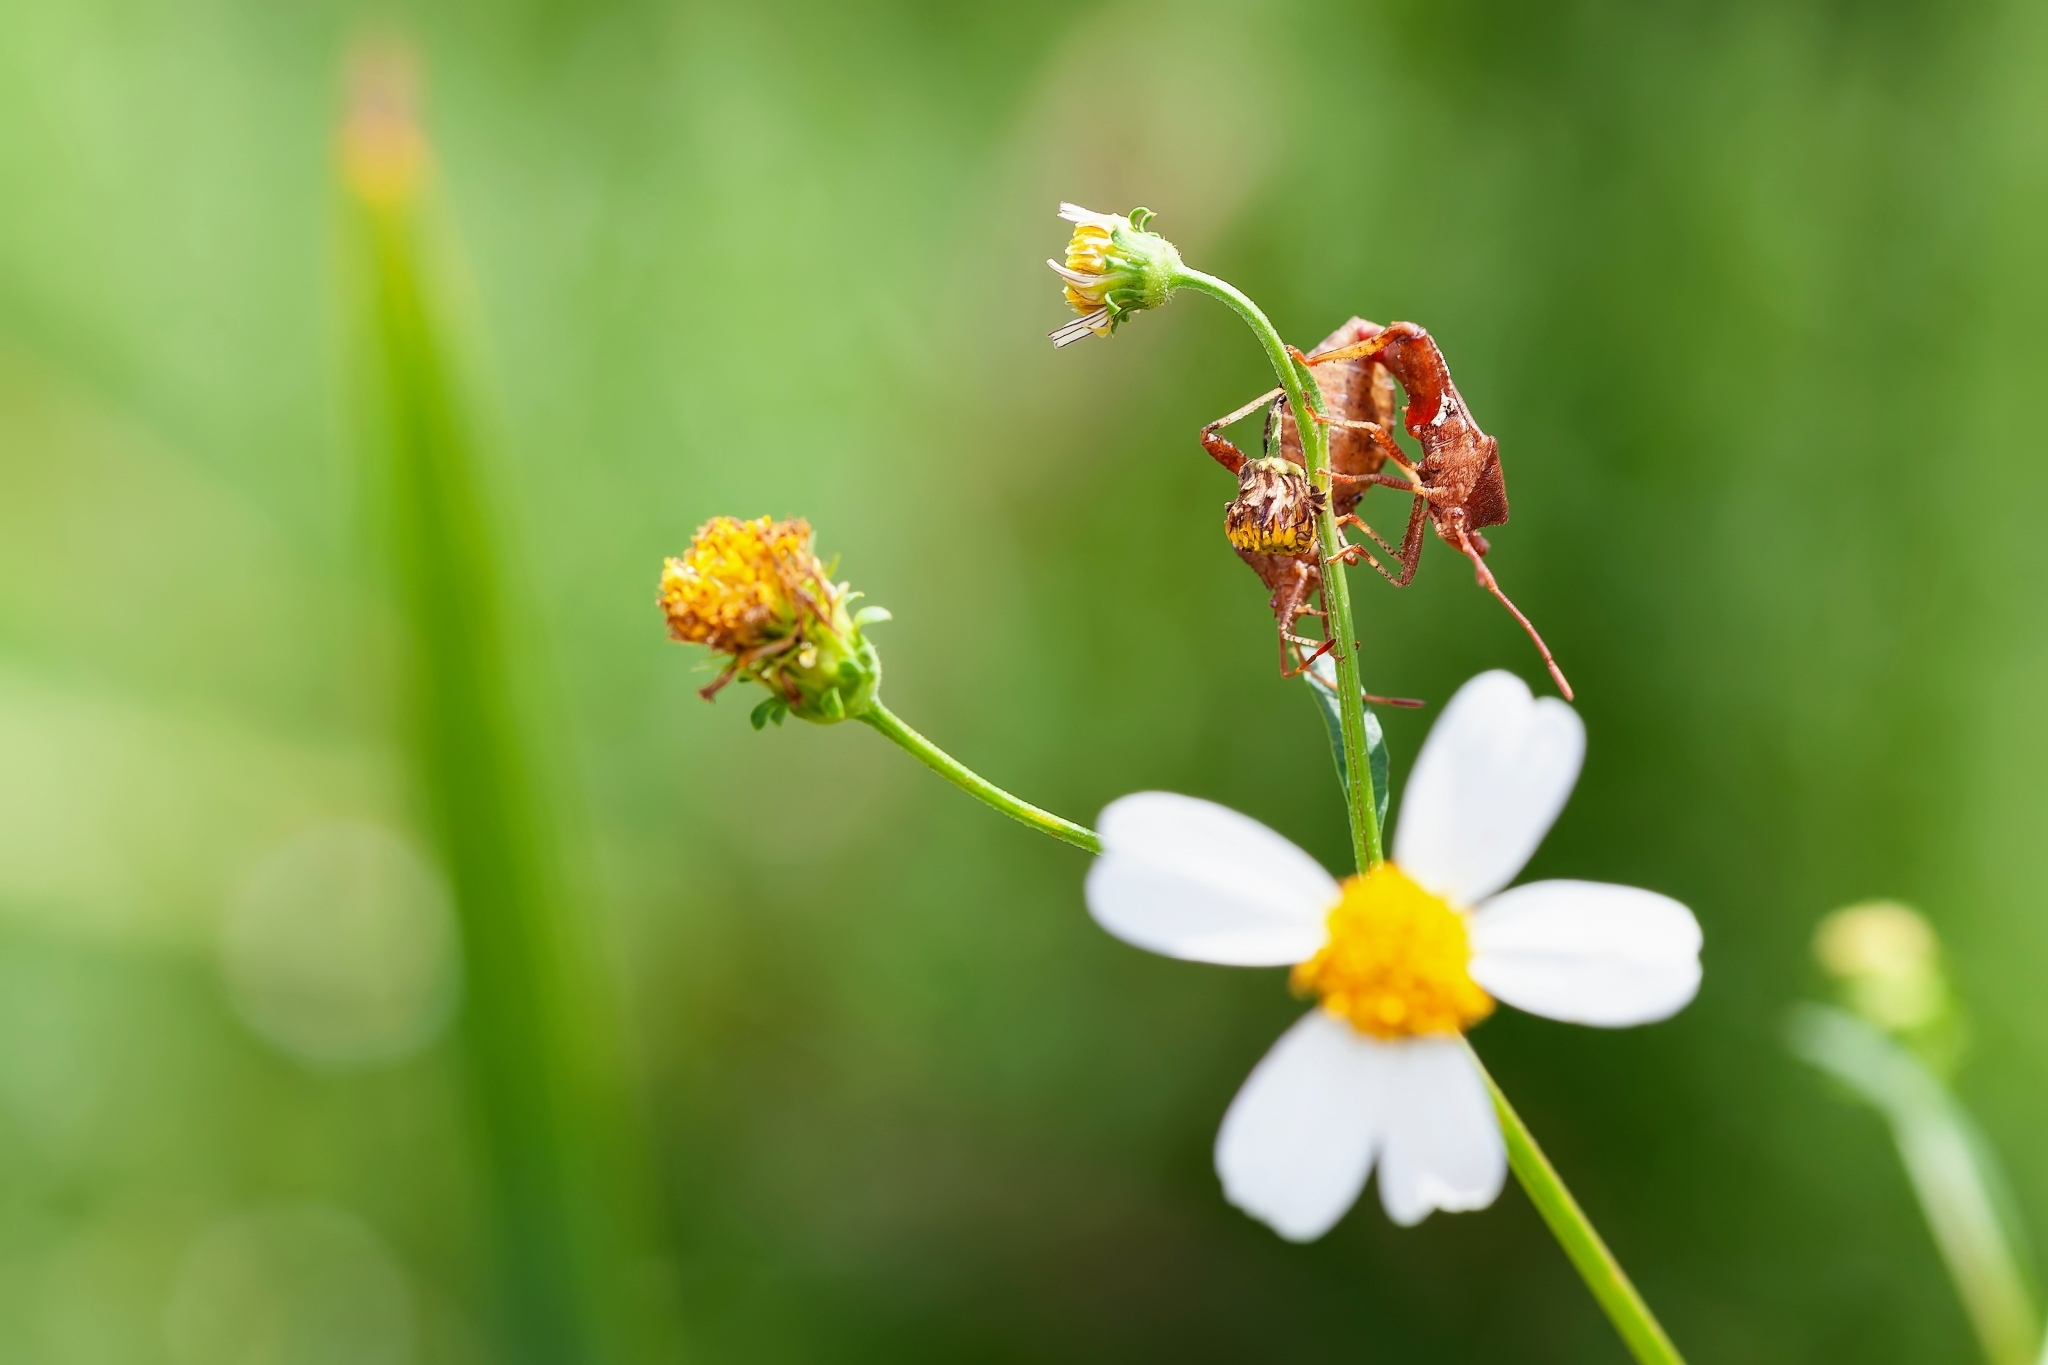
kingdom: Animalia
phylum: Arthropoda
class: Insecta
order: Hemiptera
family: Coreidae
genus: Euthochtha
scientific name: Euthochtha galeator
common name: Helmeted squash bug
